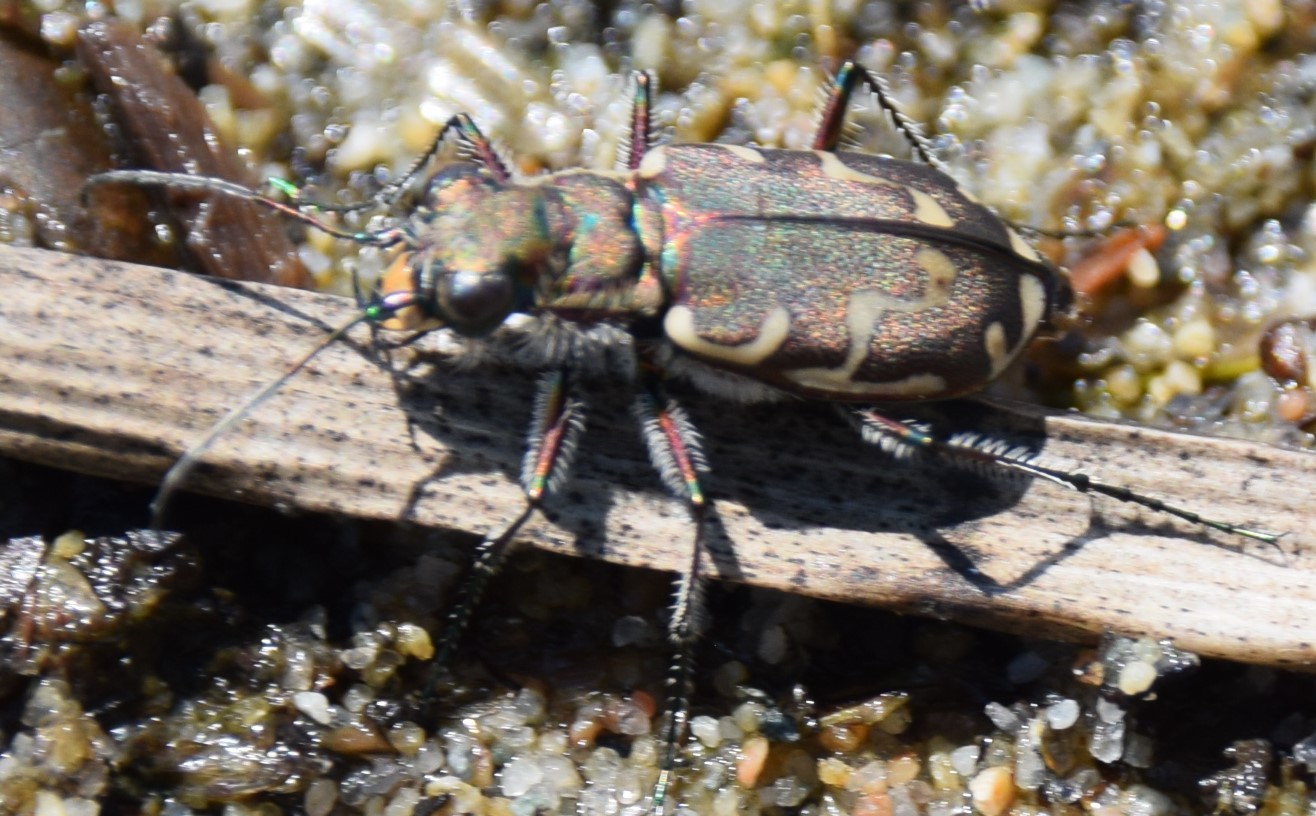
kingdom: Animalia
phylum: Arthropoda
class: Insecta
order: Coleoptera
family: Carabidae
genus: Cicindela
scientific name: Cicindela repanda
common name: Bronzed tiger beetle
